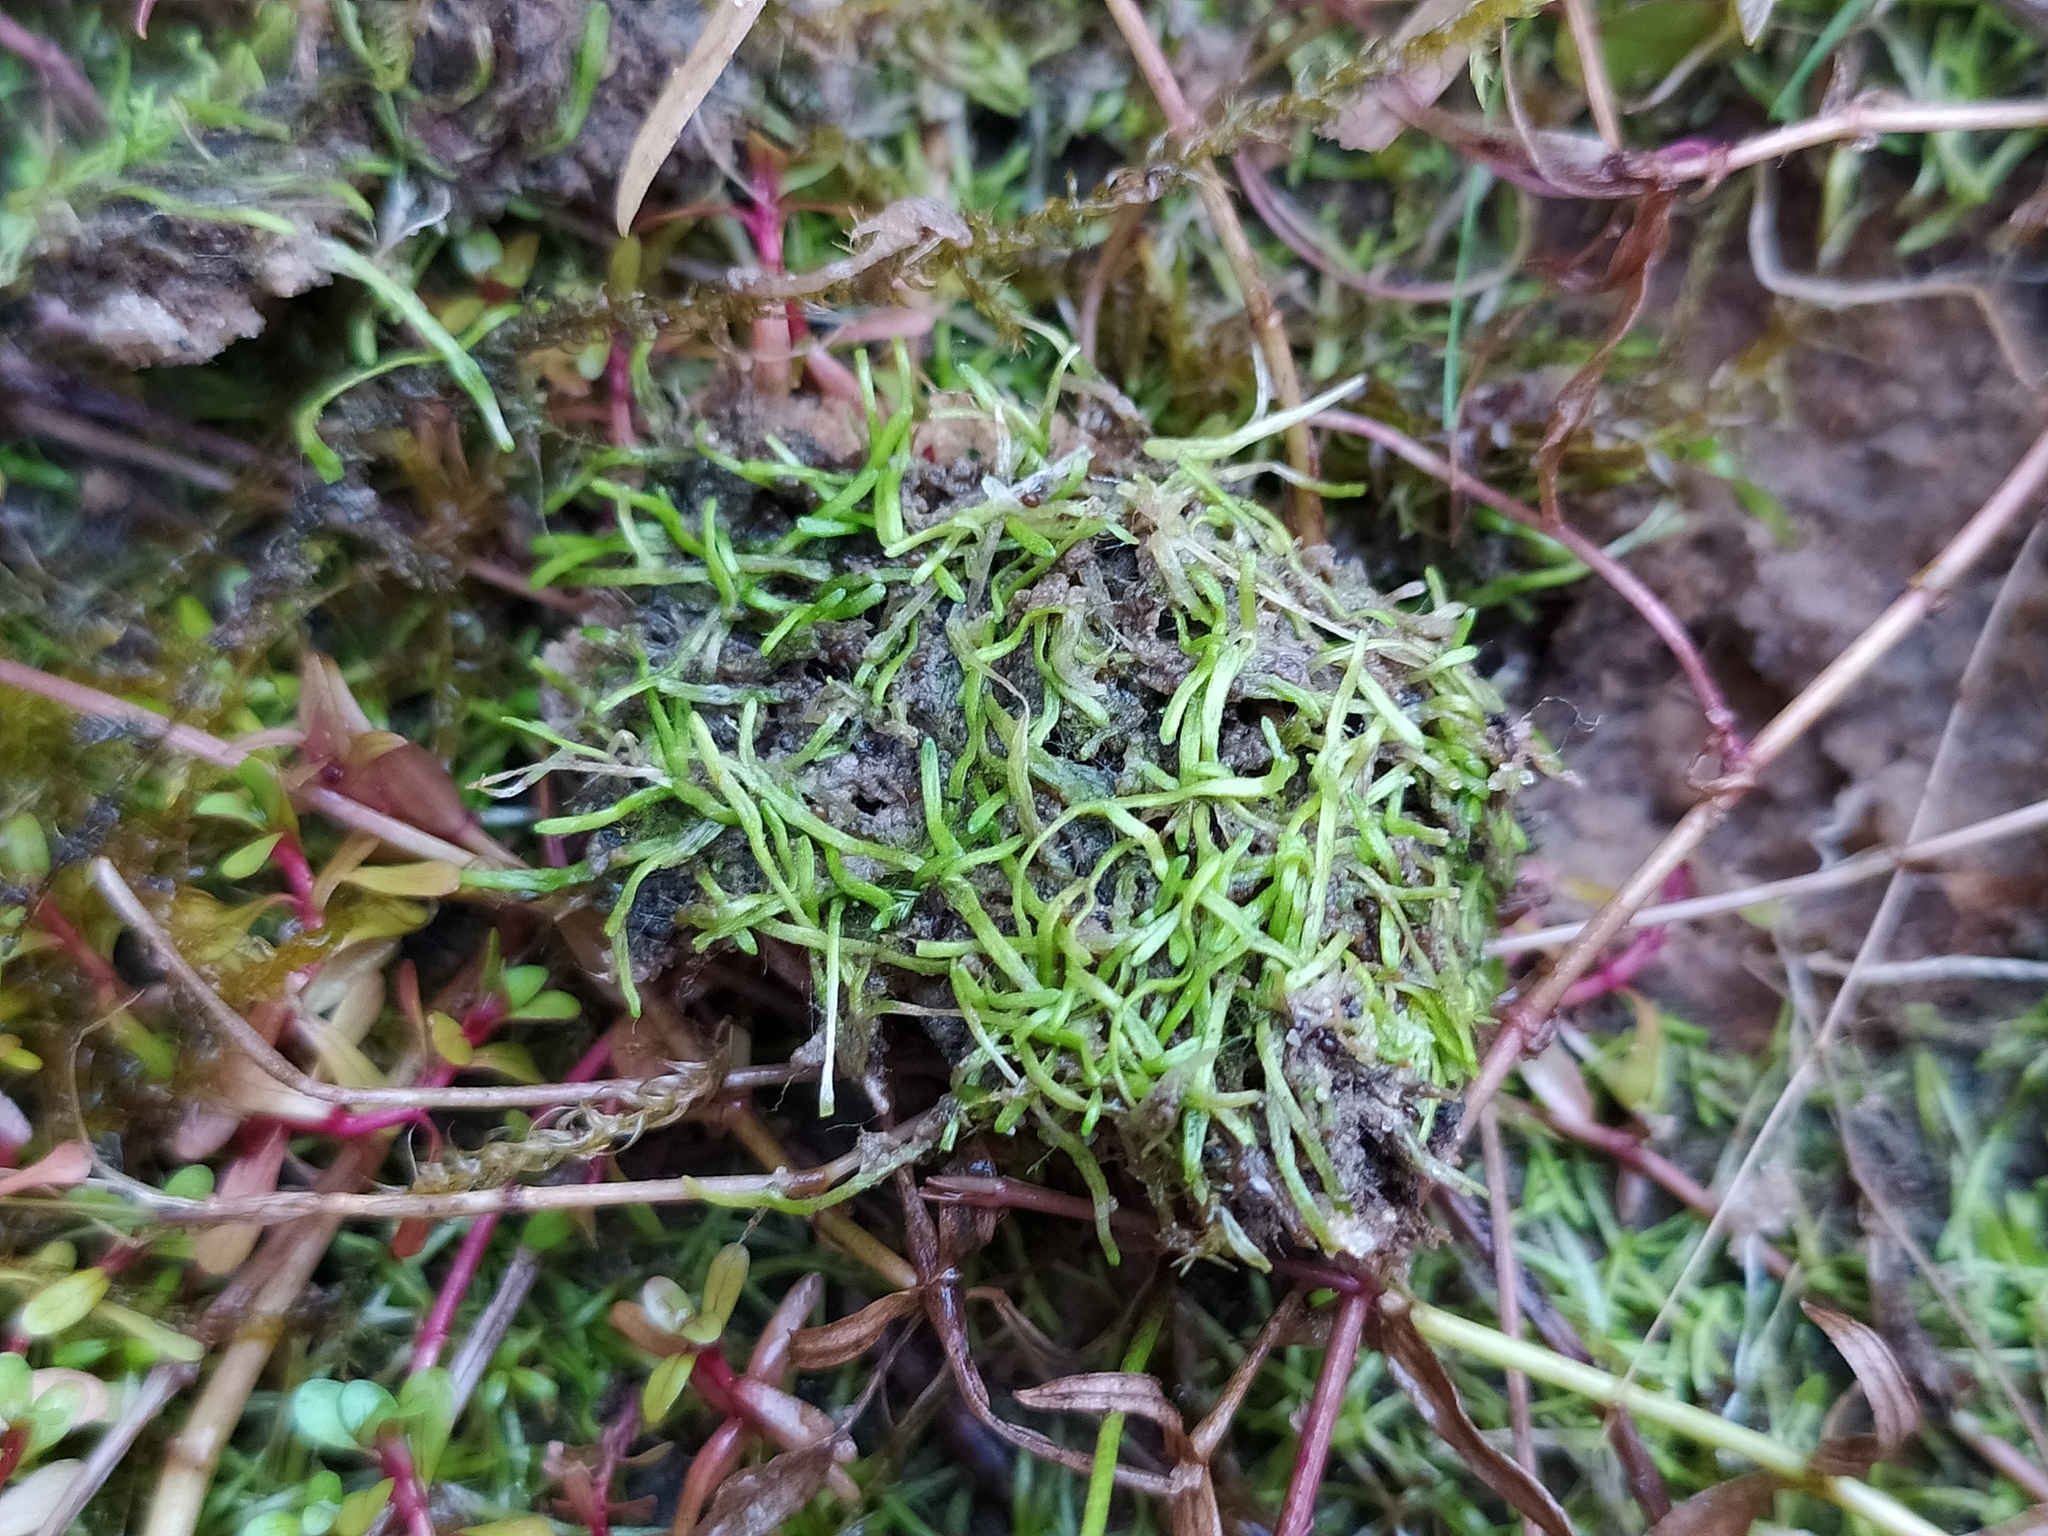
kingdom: Plantae
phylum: Marchantiophyta
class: Marchantiopsida
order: Marchantiales
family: Ricciaceae
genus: Riccia
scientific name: Riccia canaliculata
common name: Channelled crystalwort
